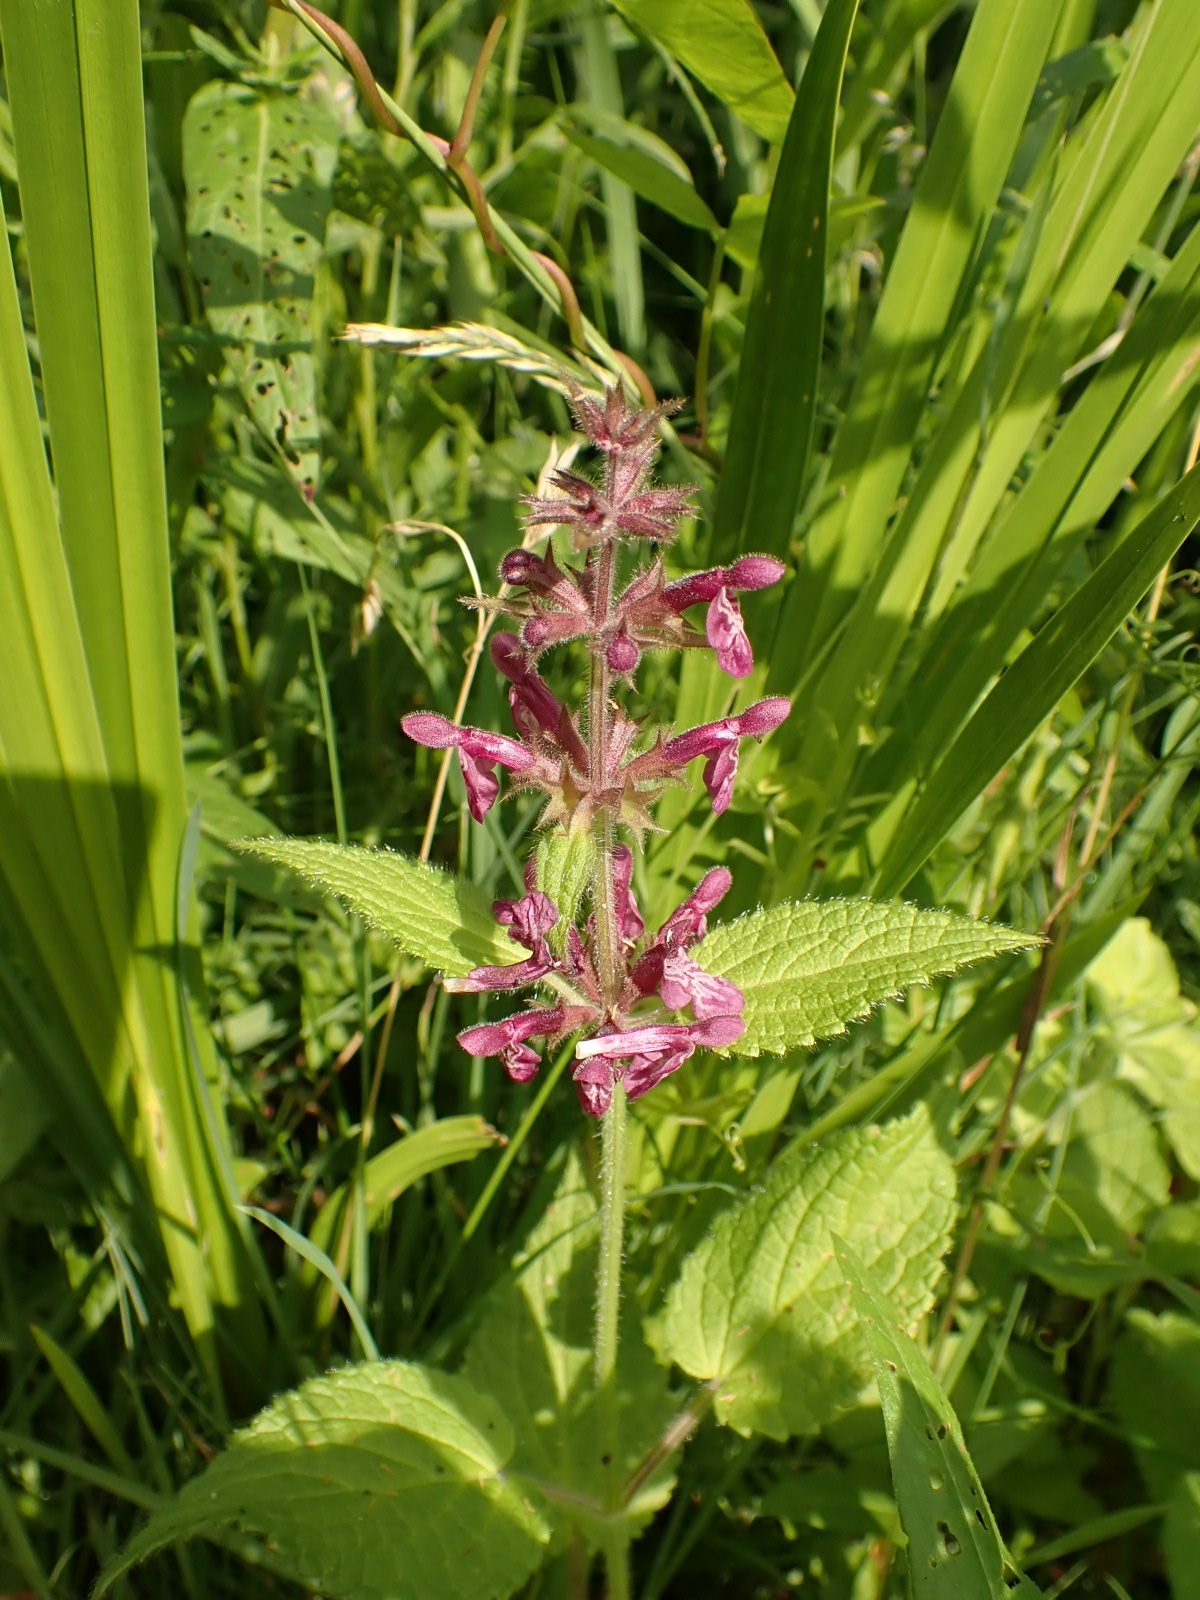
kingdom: Plantae
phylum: Tracheophyta
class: Magnoliopsida
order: Lamiales
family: Lamiaceae
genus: Stachys
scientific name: Stachys sylvatica
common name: Hedge woundwort
